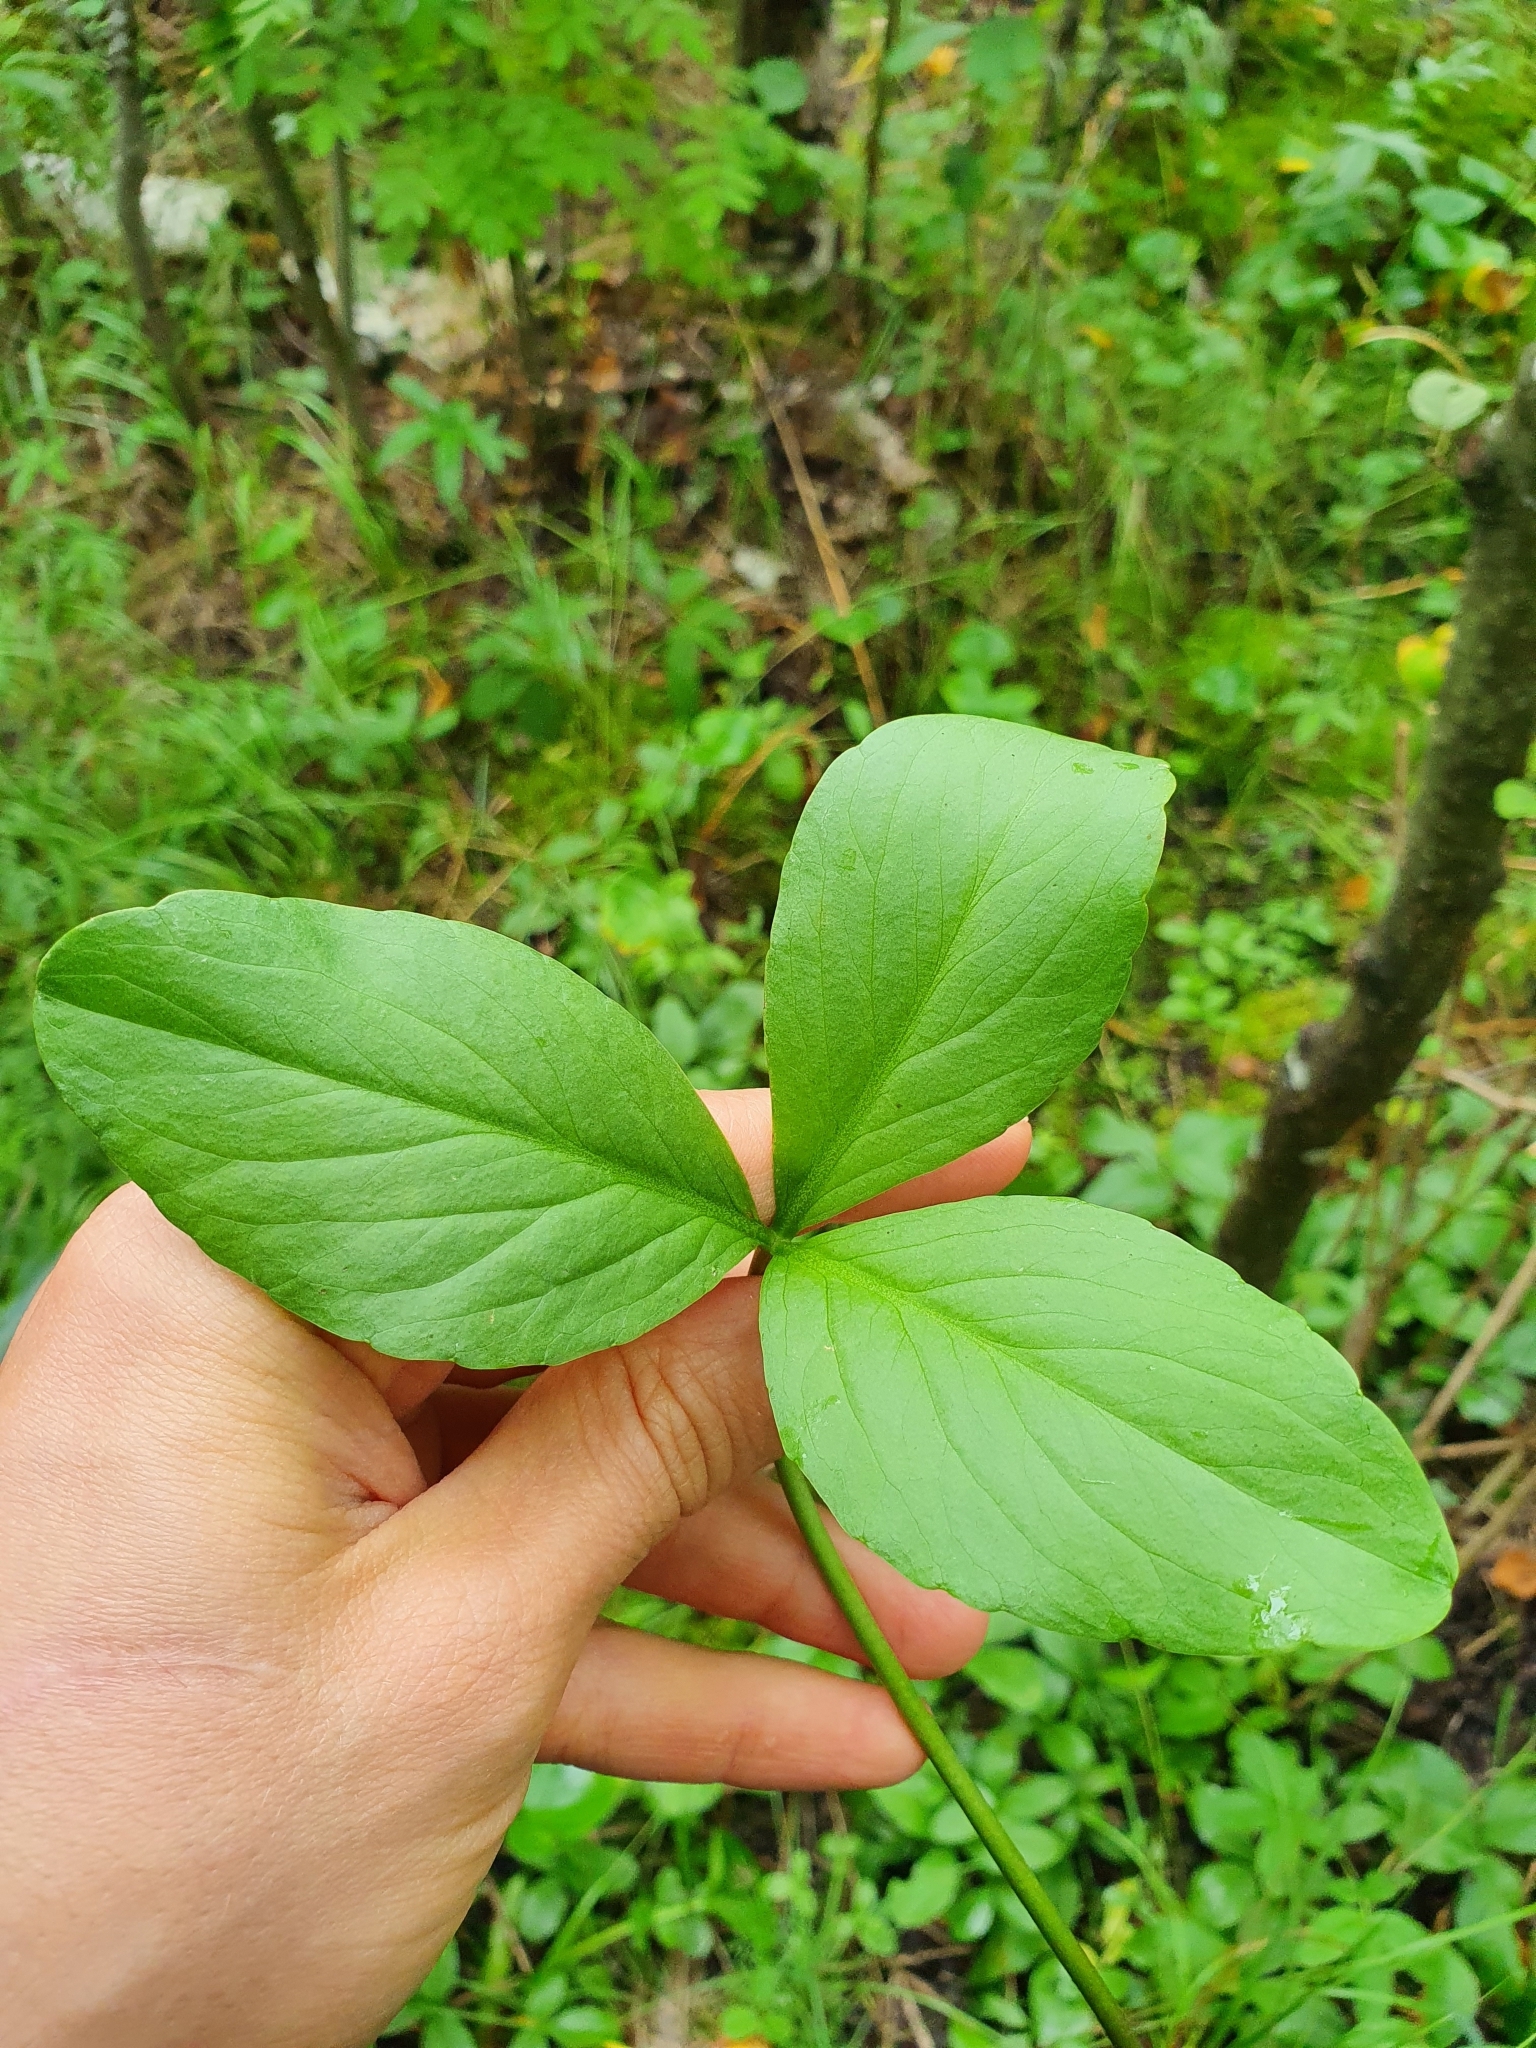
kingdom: Plantae
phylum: Tracheophyta
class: Magnoliopsida
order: Asterales
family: Menyanthaceae
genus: Menyanthes
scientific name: Menyanthes trifoliata
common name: Bogbean
